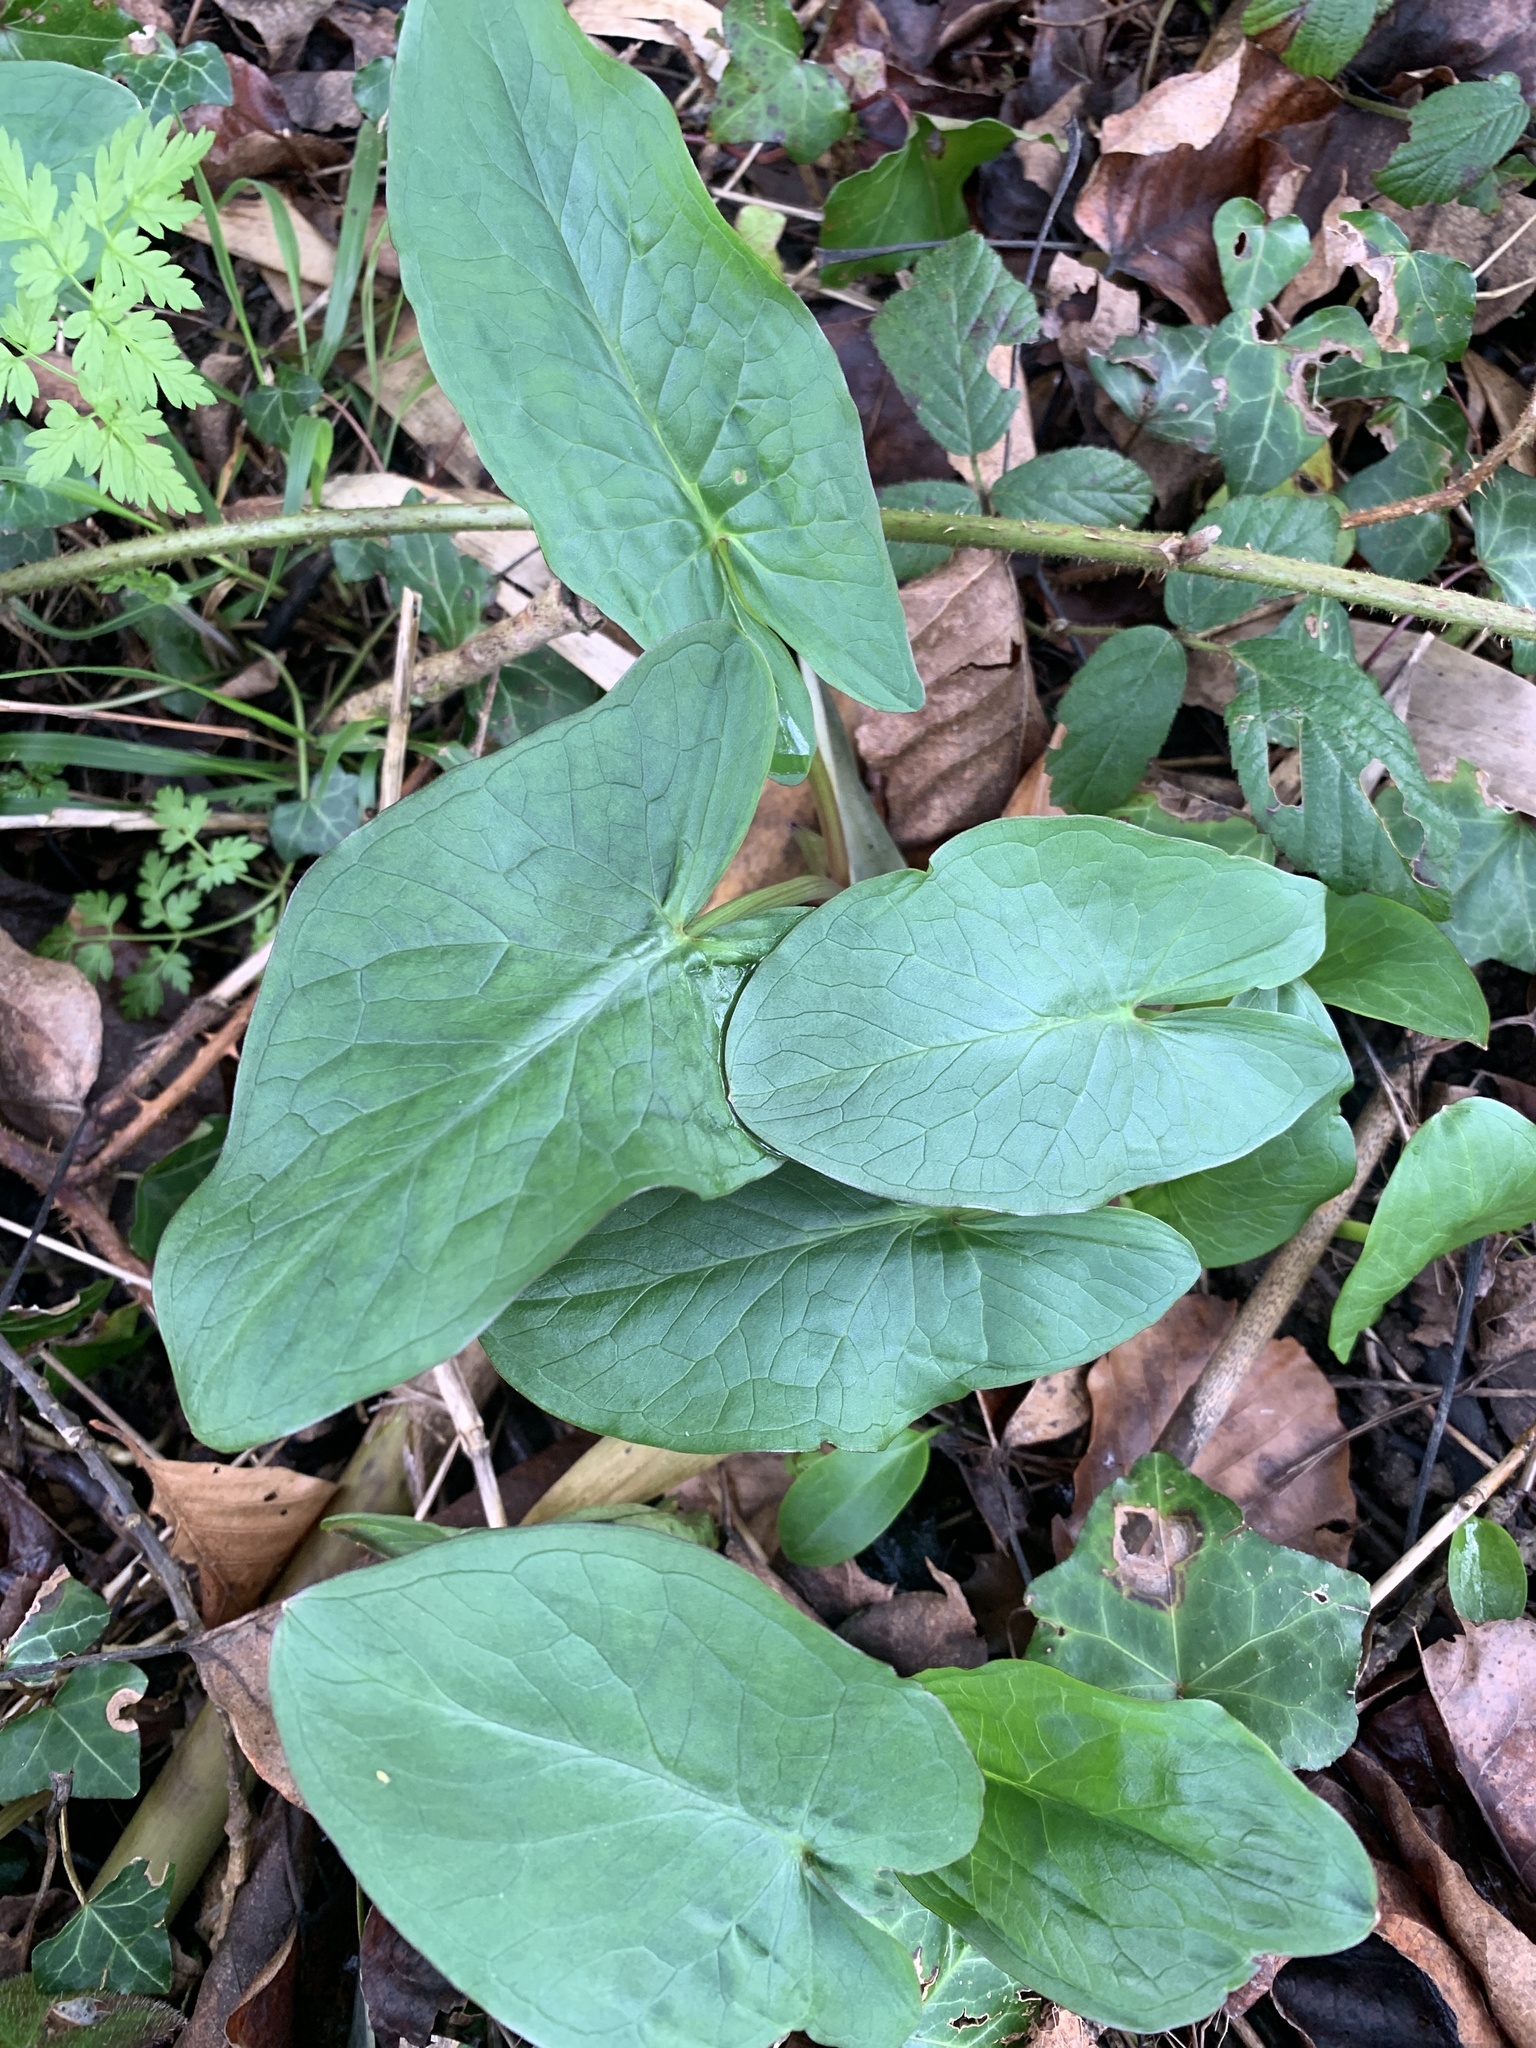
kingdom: Plantae
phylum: Tracheophyta
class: Liliopsida
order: Alismatales
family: Araceae
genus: Arum
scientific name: Arum maculatum
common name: Lords-and-ladies
